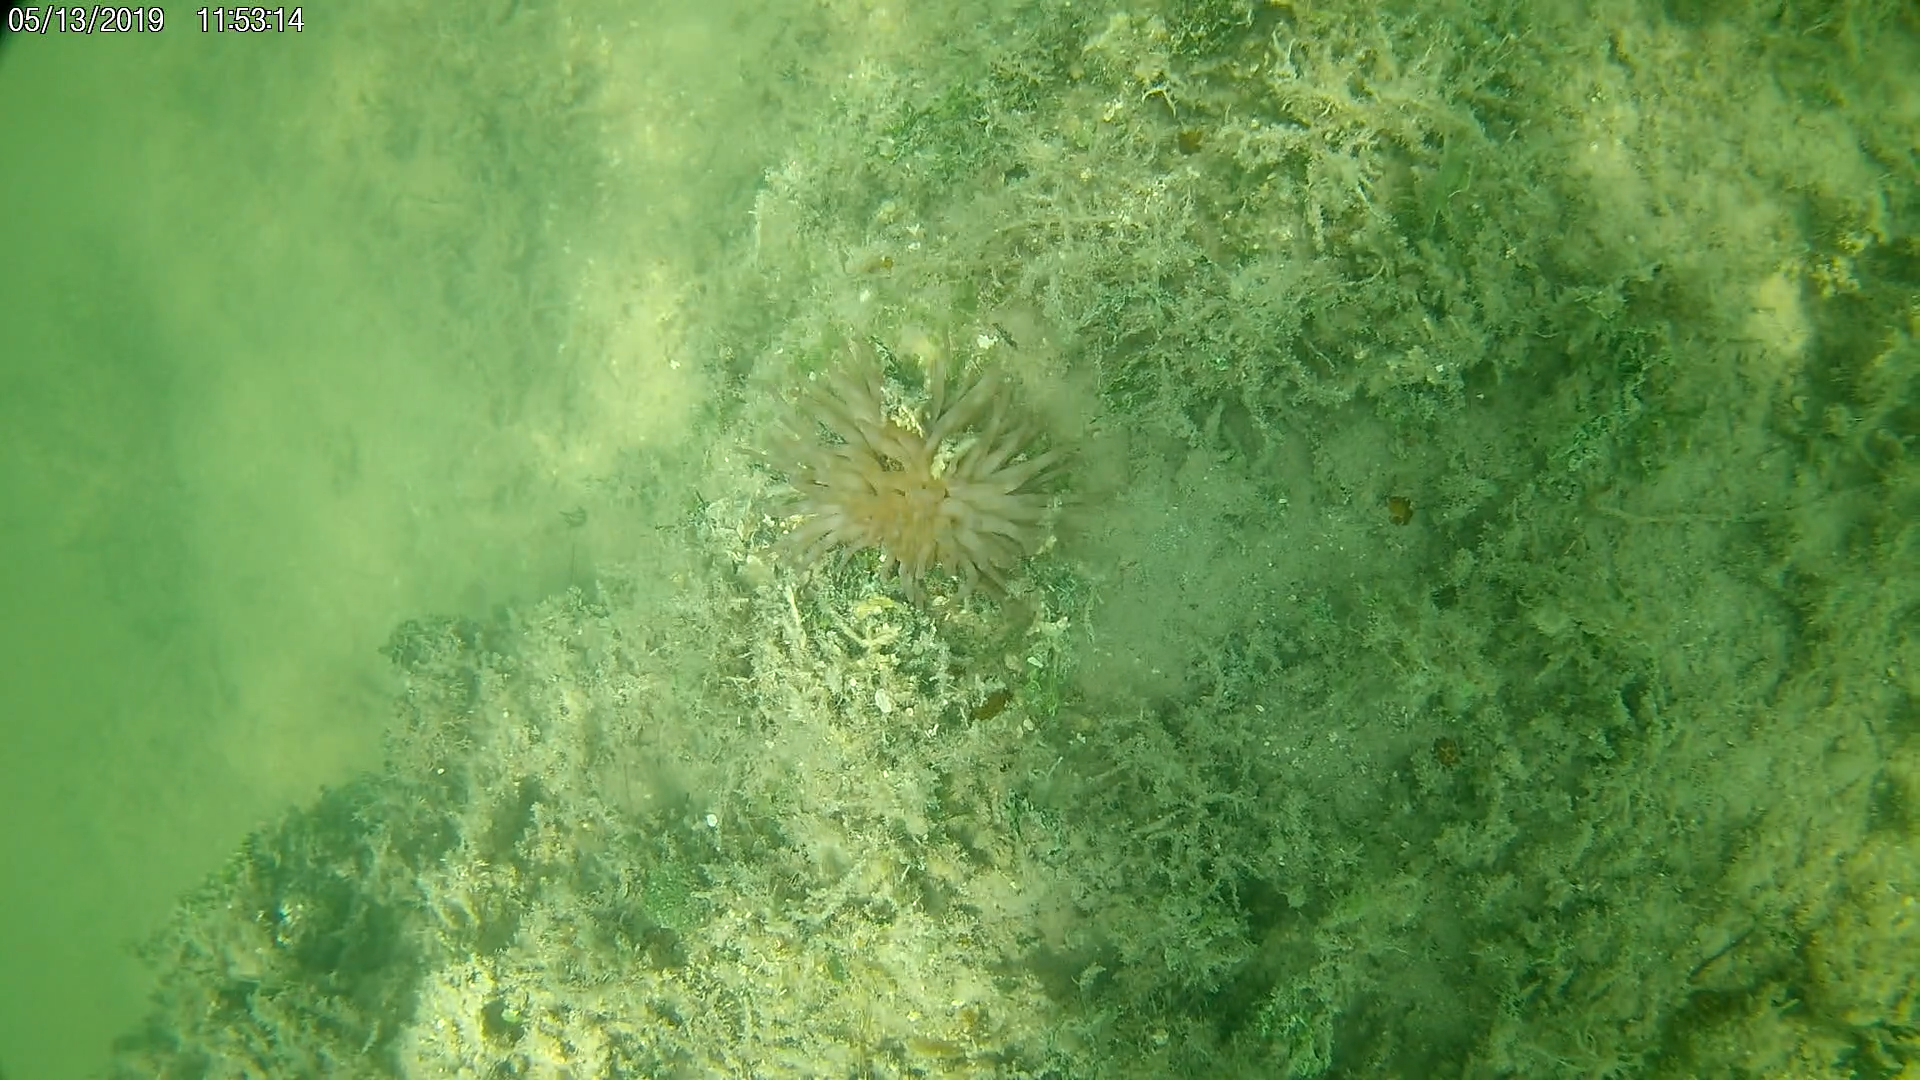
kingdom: Animalia
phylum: Cnidaria
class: Anthozoa
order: Actiniaria
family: Actiniidae
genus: Condylactis
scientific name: Condylactis gigantea
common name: Giant caribbean anemone
